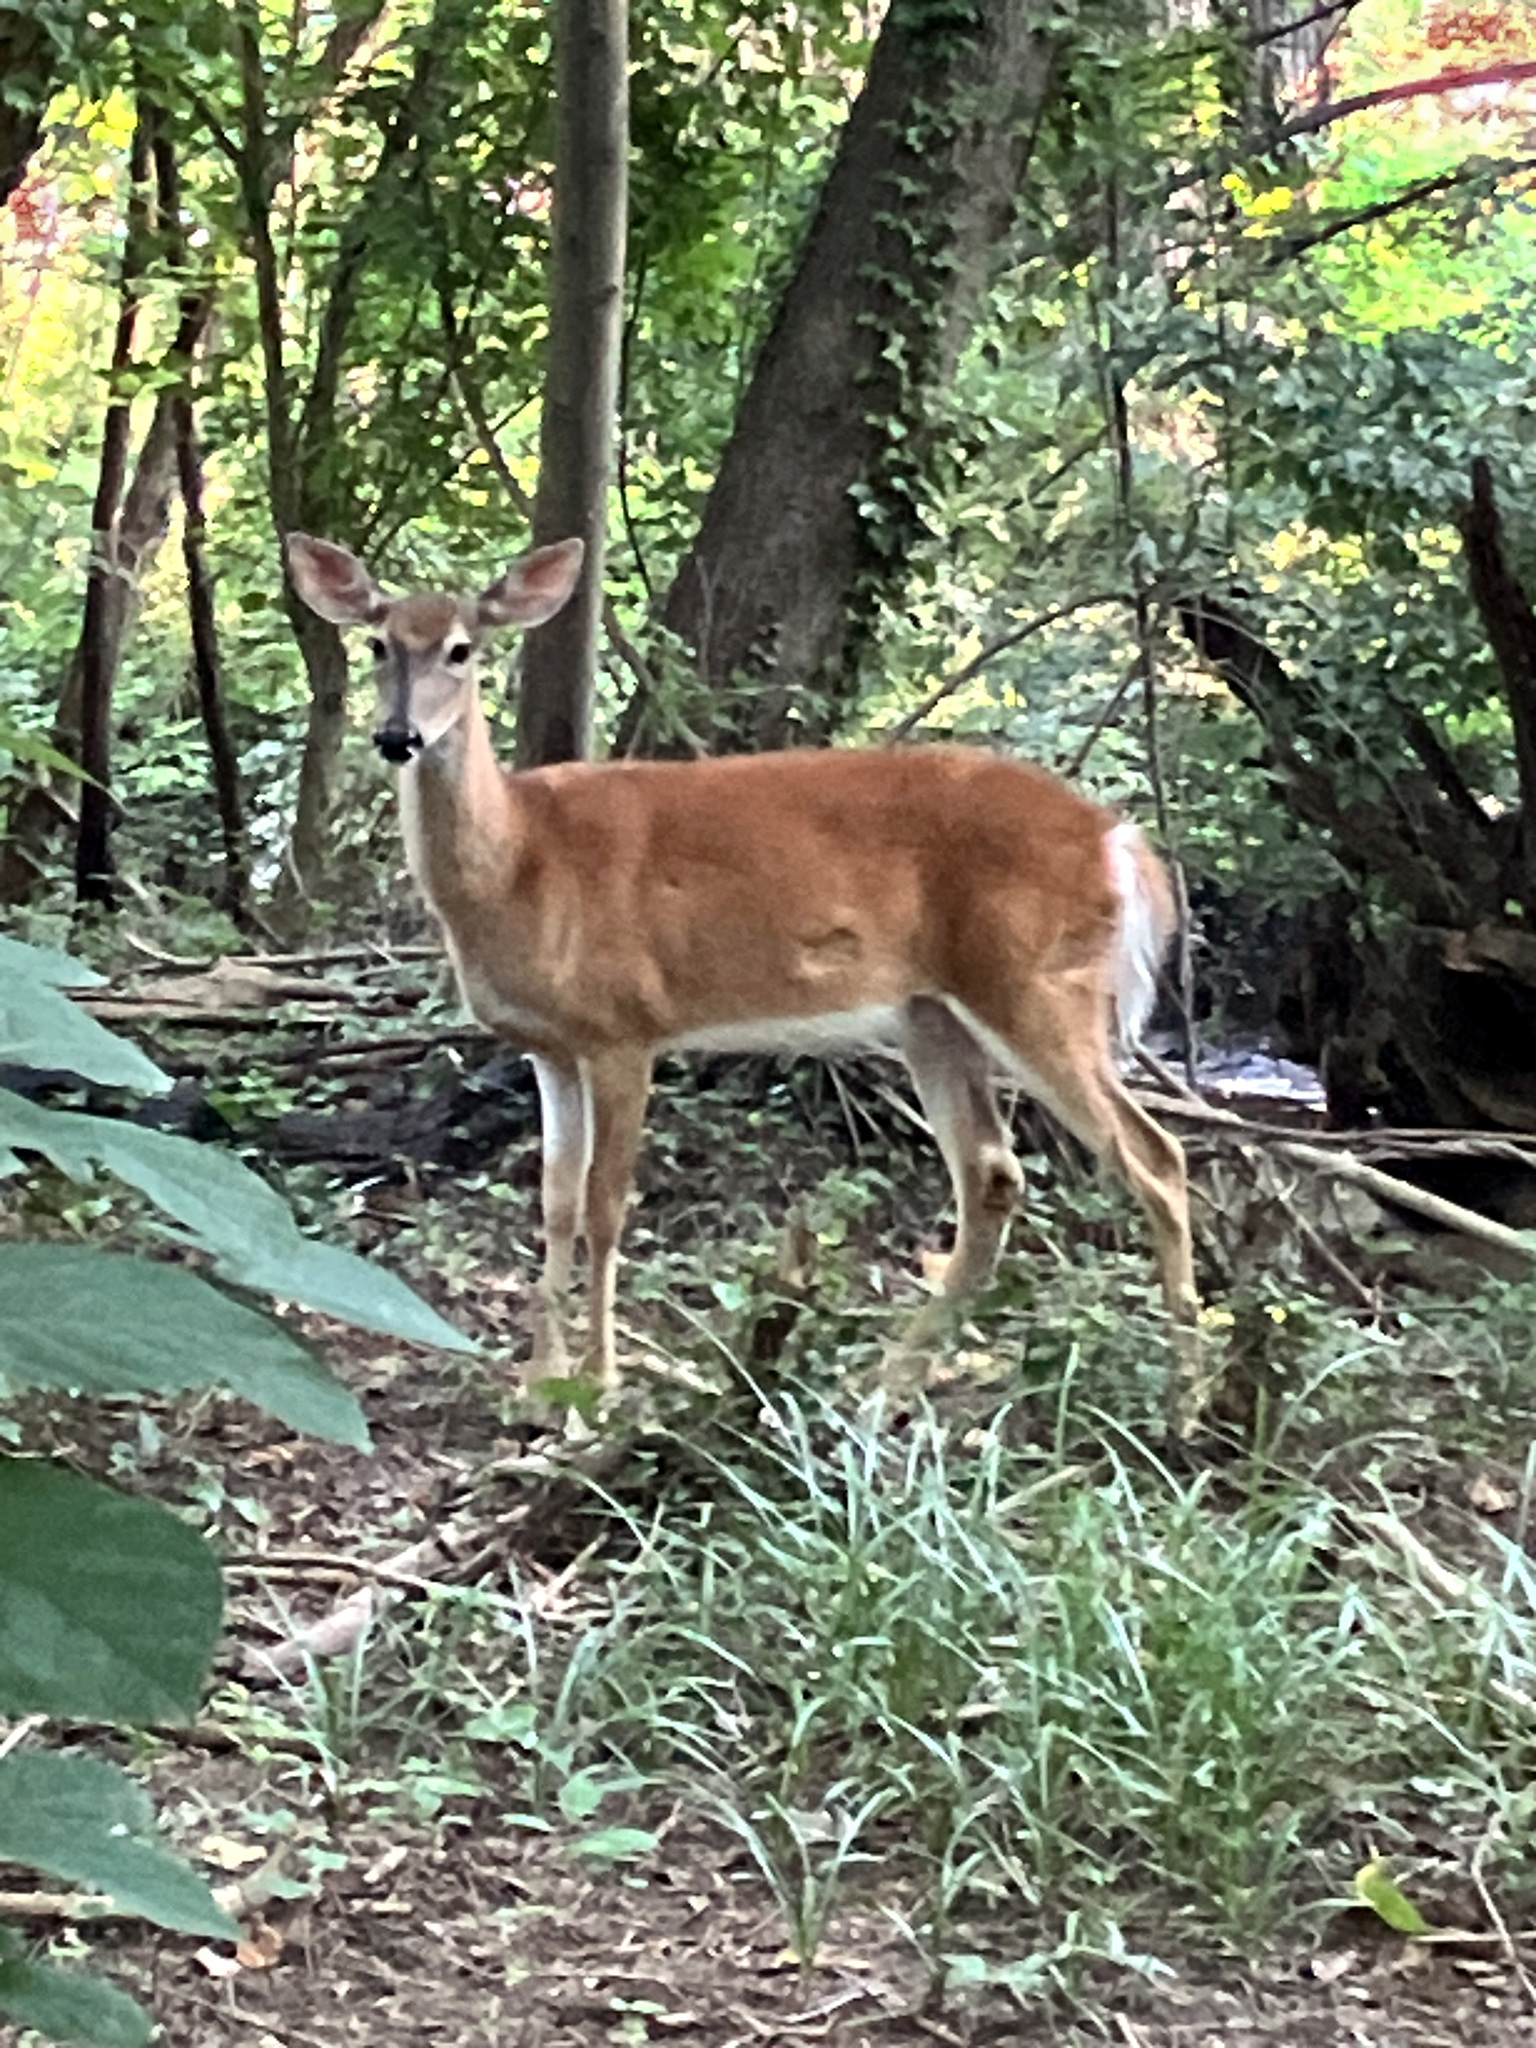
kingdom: Animalia
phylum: Chordata
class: Mammalia
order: Artiodactyla
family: Cervidae
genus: Odocoileus
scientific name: Odocoileus virginianus
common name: White-tailed deer
